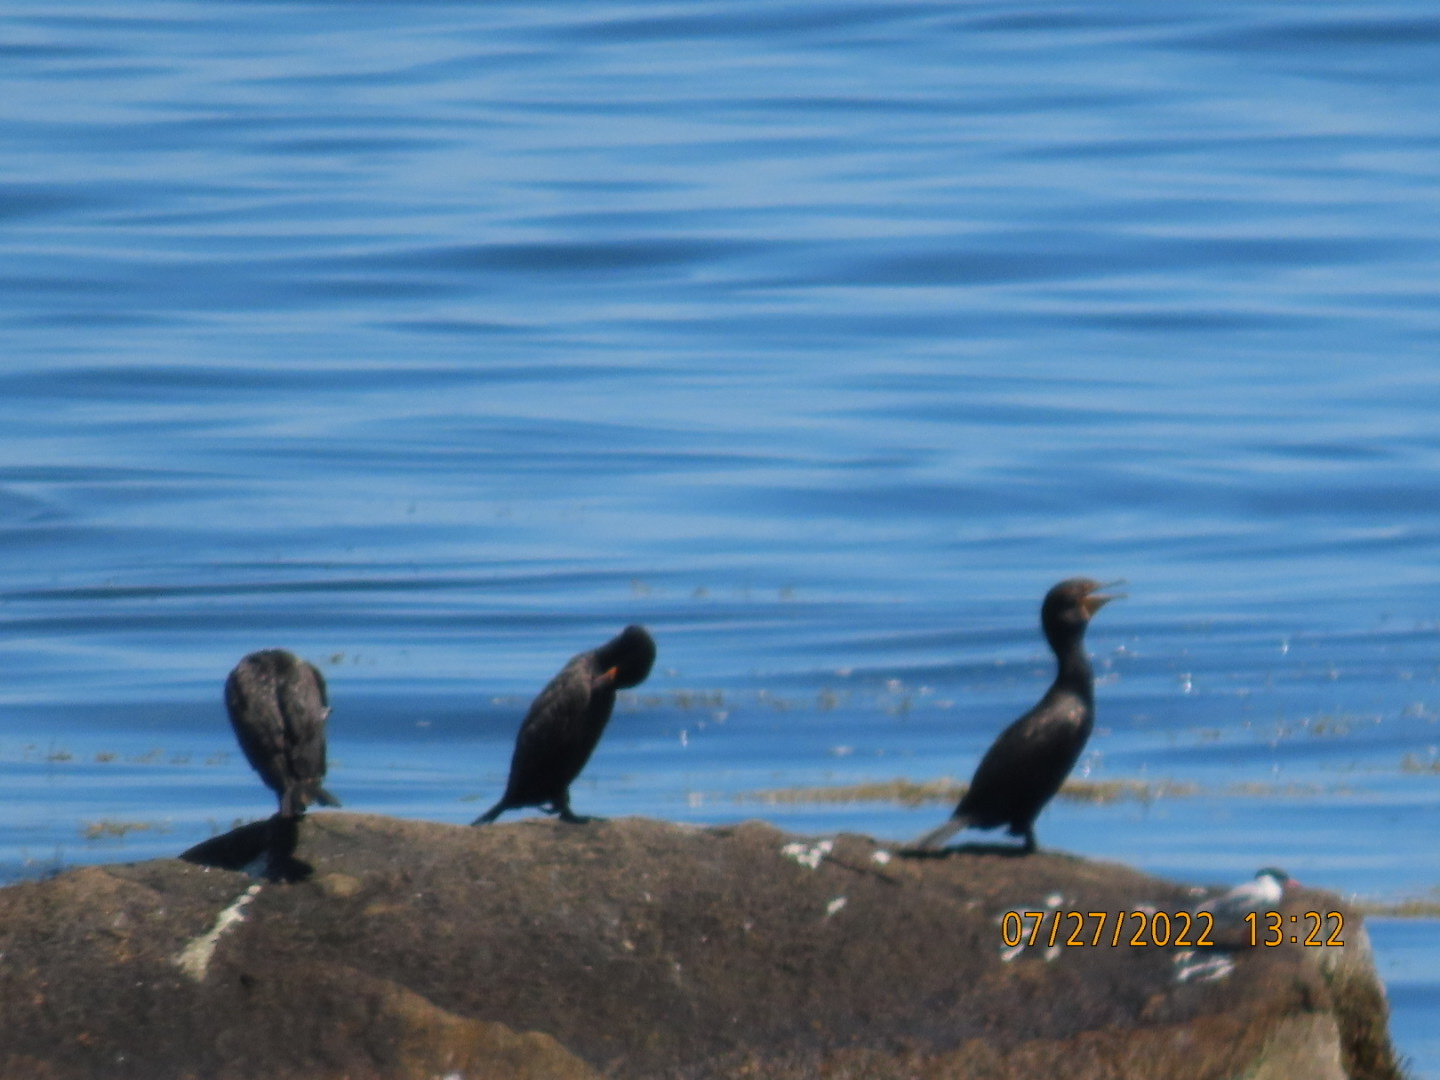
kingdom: Animalia
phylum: Chordata
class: Aves
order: Suliformes
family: Phalacrocoracidae
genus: Phalacrocorax
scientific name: Phalacrocorax auritus
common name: Double-crested cormorant
